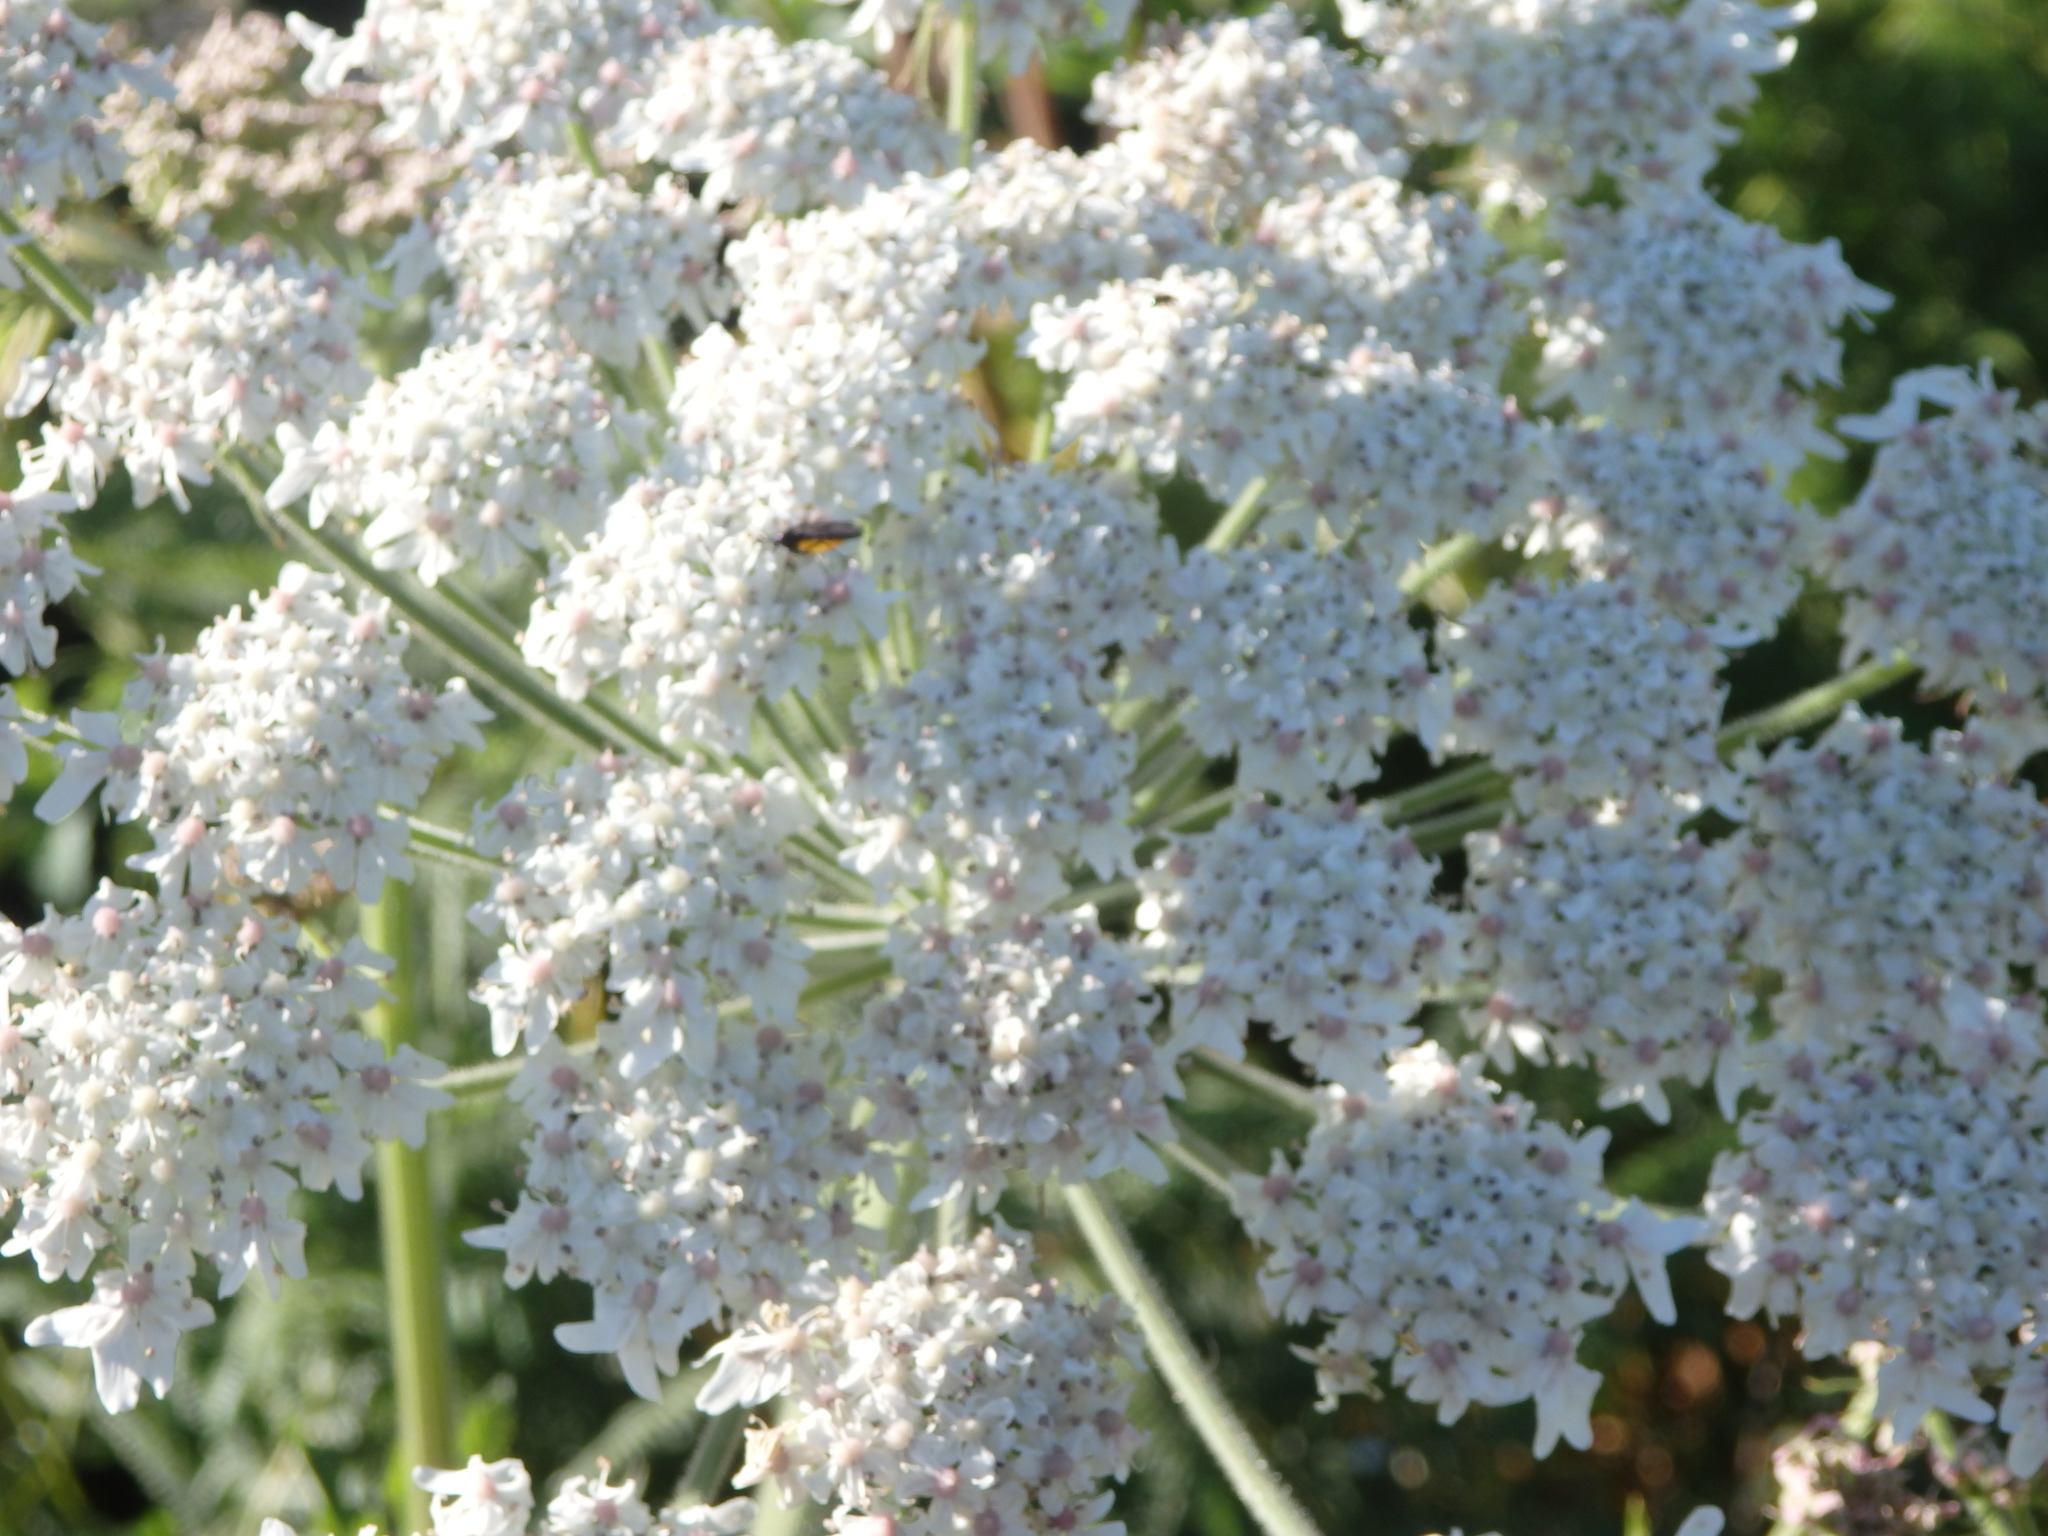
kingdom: Plantae
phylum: Tracheophyta
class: Magnoliopsida
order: Apiales
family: Apiaceae
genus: Heracleum
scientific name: Heracleum sphondylium
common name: Hogweed
